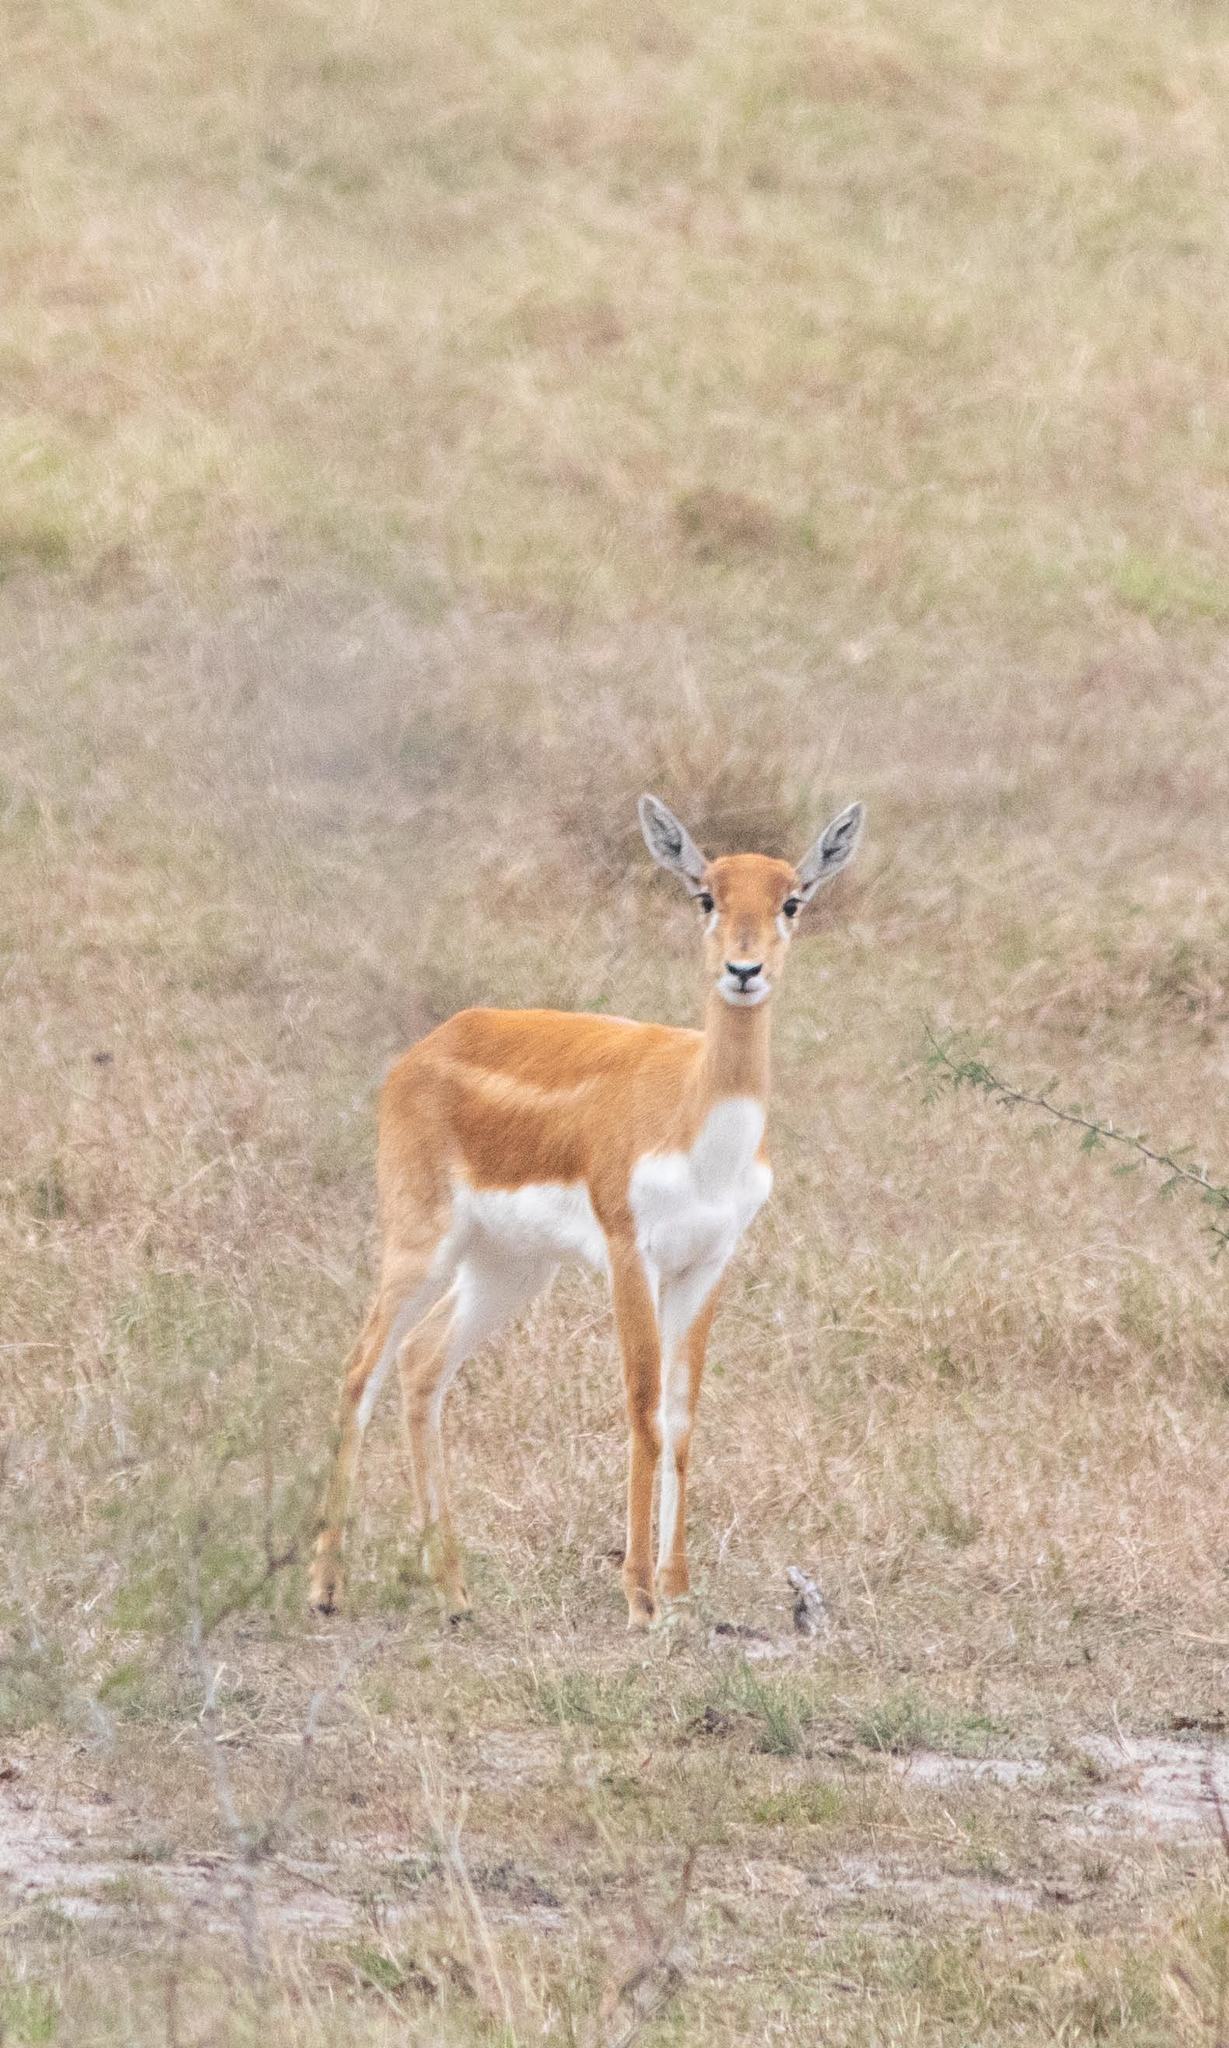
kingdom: Animalia
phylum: Chordata
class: Mammalia
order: Artiodactyla
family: Bovidae
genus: Antilope
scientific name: Antilope cervicapra
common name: Blackbuck
